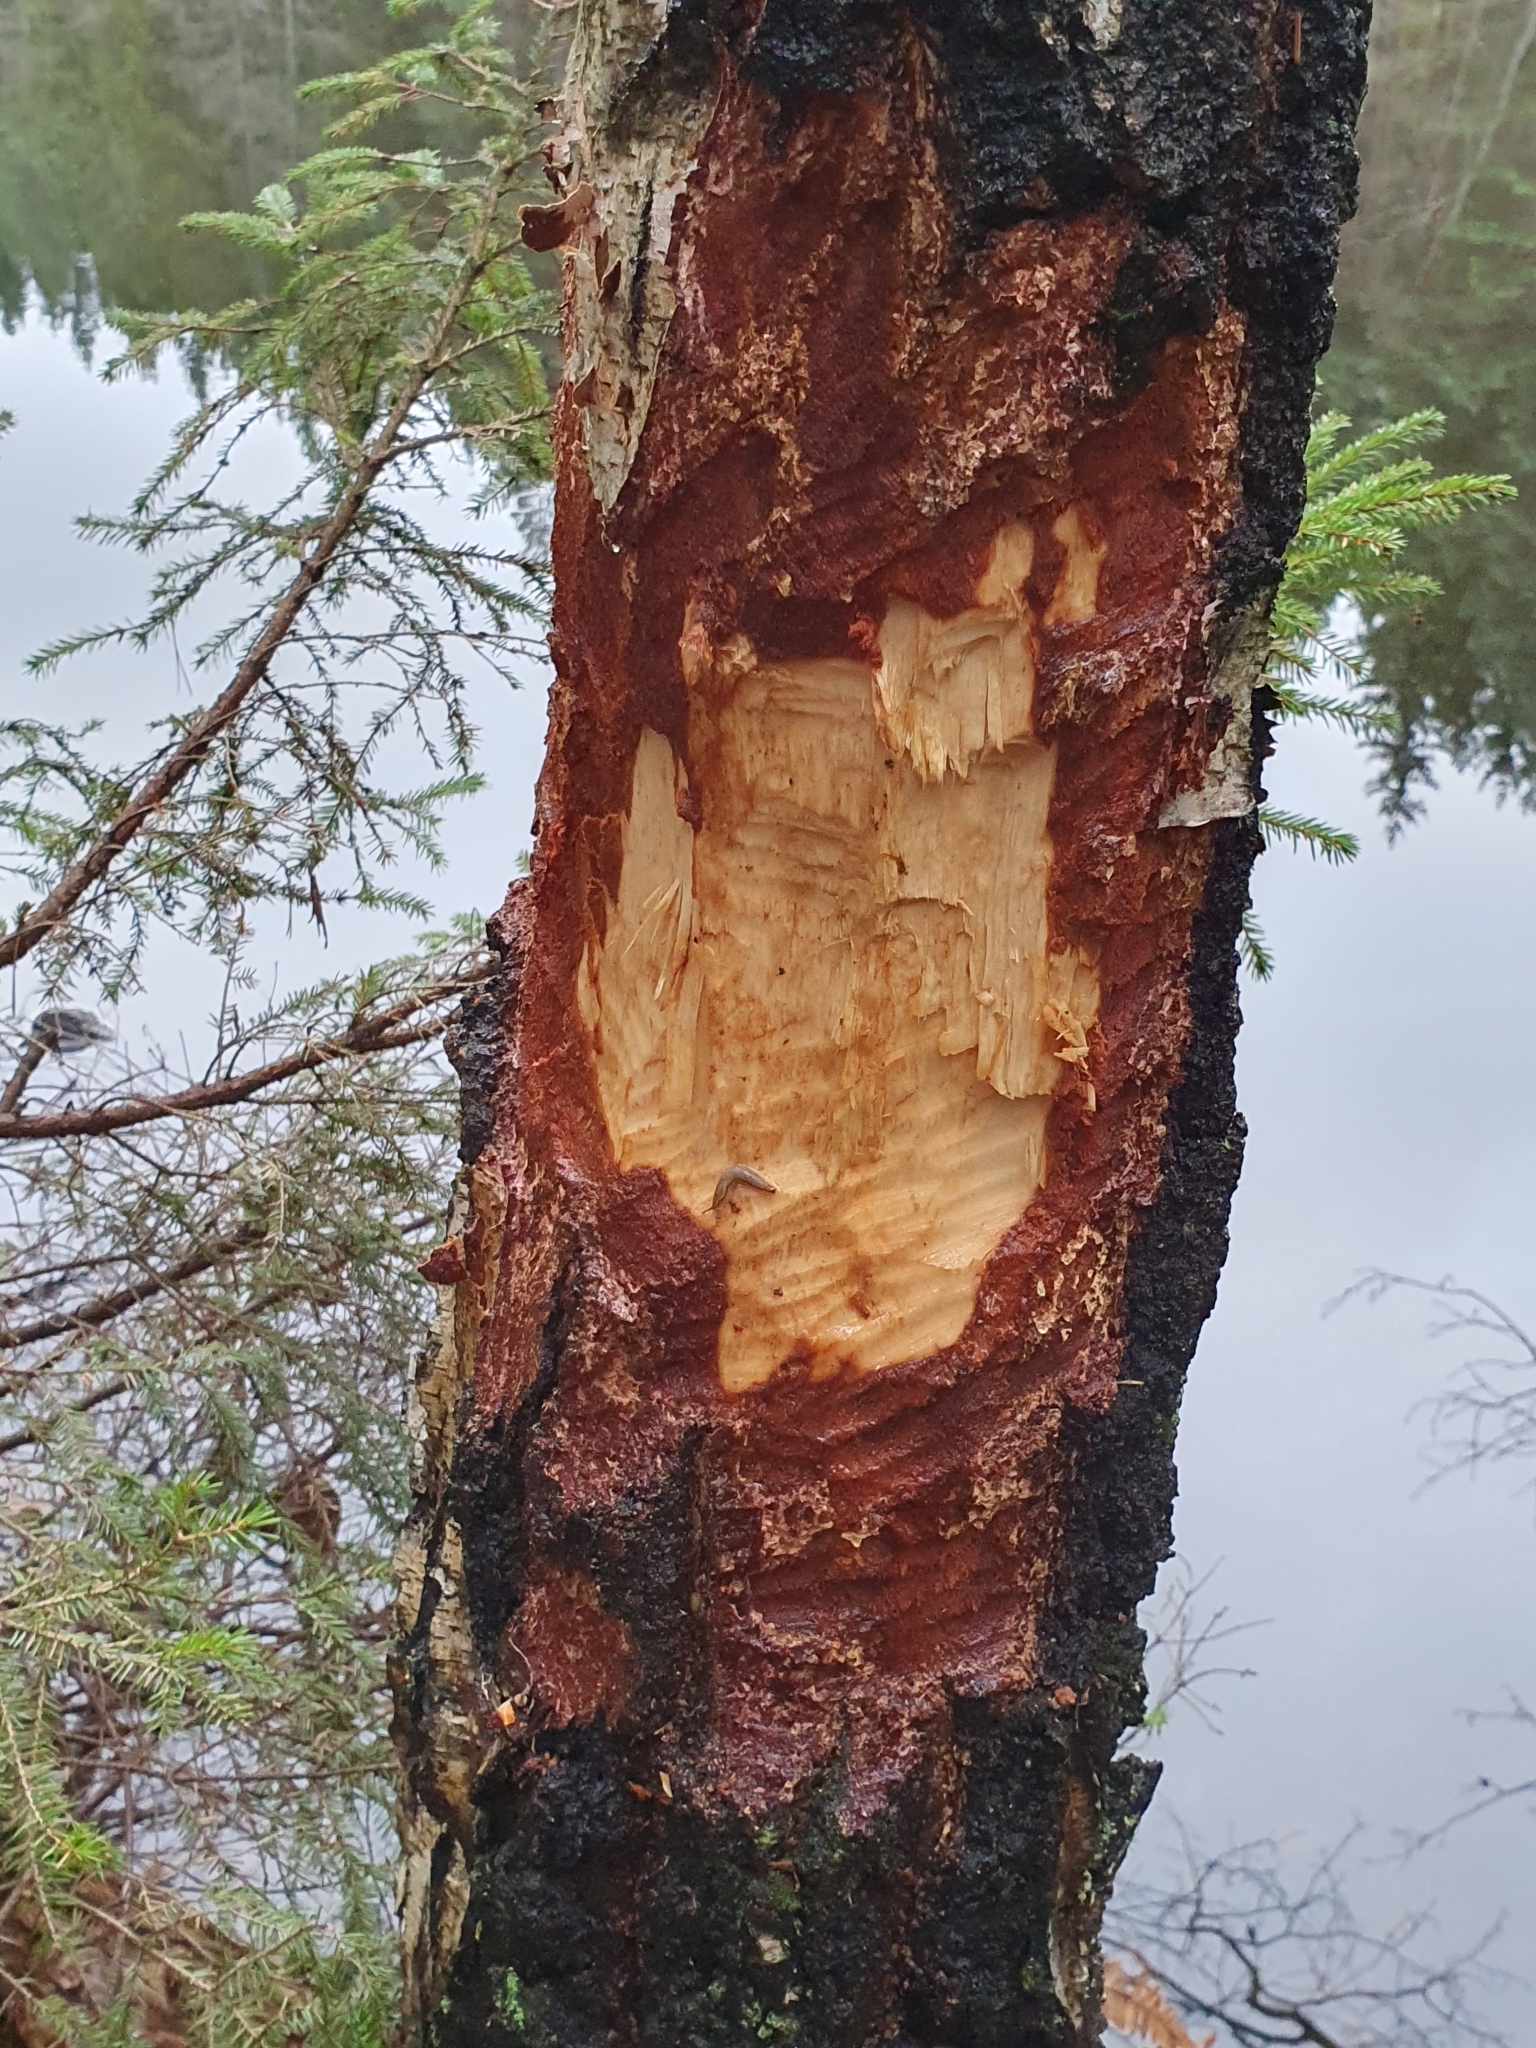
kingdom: Animalia
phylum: Chordata
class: Mammalia
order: Rodentia
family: Castoridae
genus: Castor
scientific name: Castor fiber
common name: Eurasian beaver
